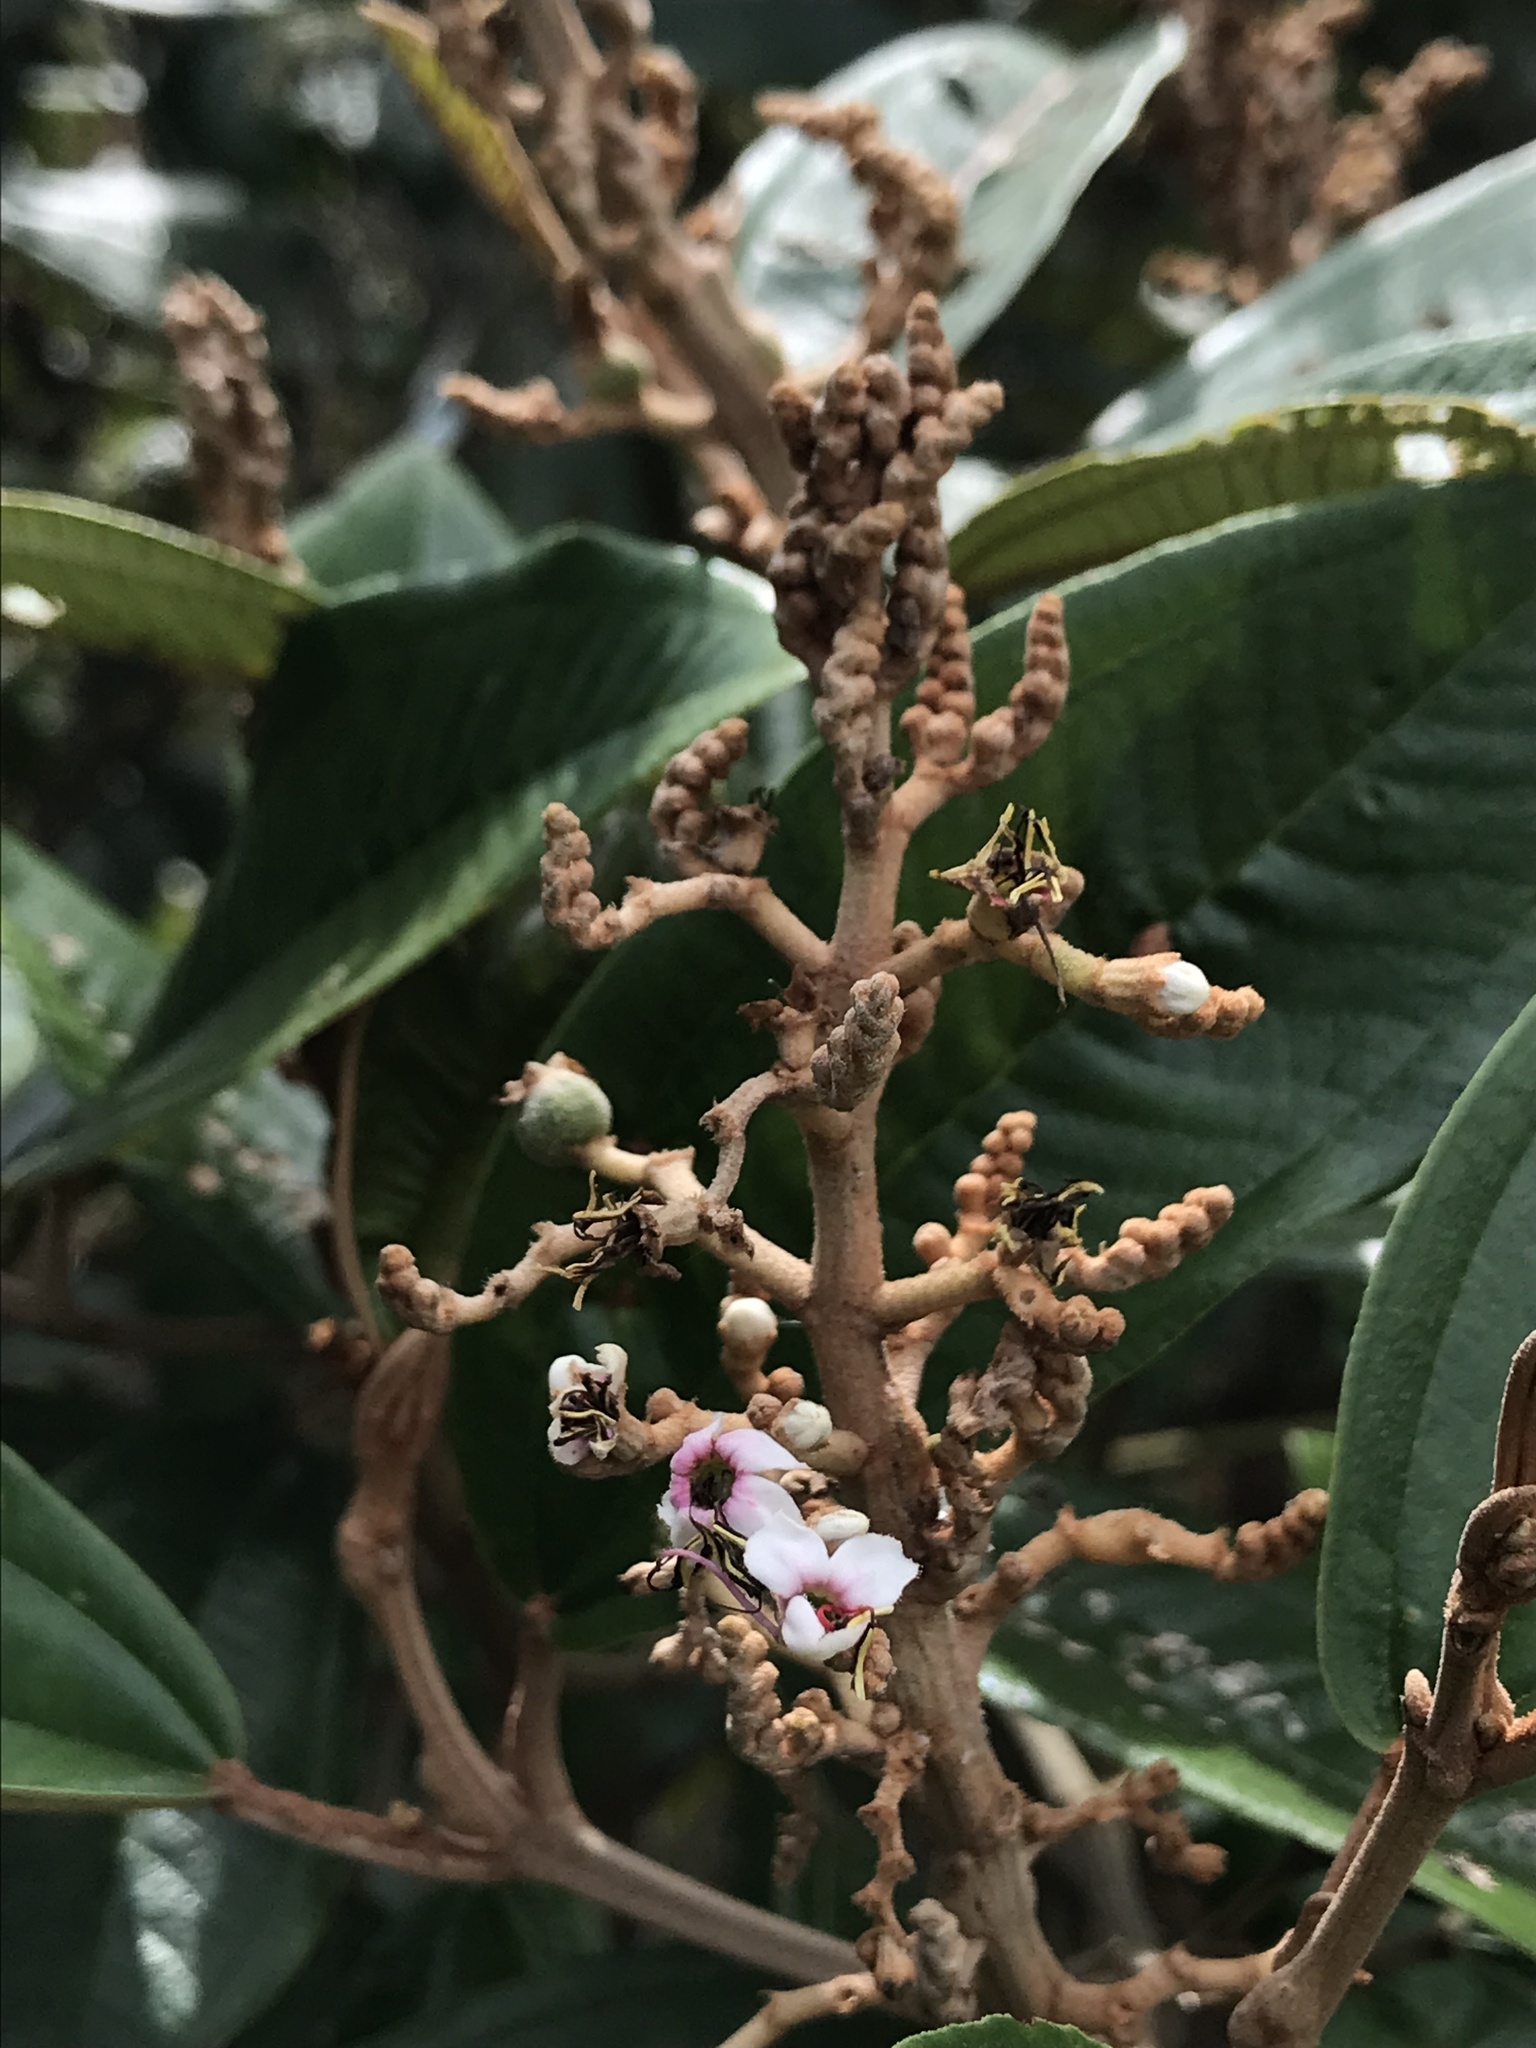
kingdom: Plantae
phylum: Tracheophyta
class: Magnoliopsida
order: Myrtales
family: Melastomataceae
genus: Miconia
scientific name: Miconia albicans
